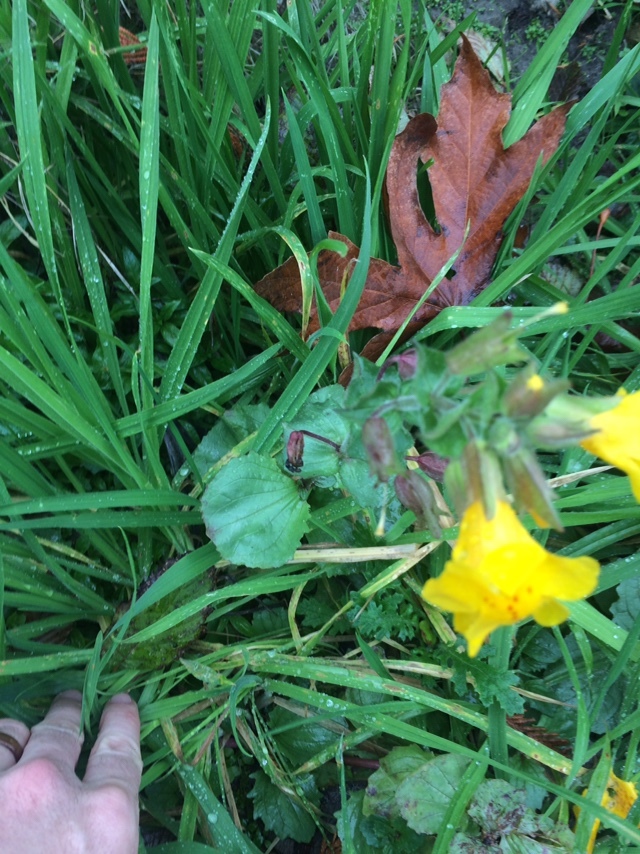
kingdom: Plantae
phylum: Tracheophyta
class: Magnoliopsida
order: Lamiales
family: Phrymaceae
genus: Erythranthe
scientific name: Erythranthe guttata
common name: Monkeyflower
